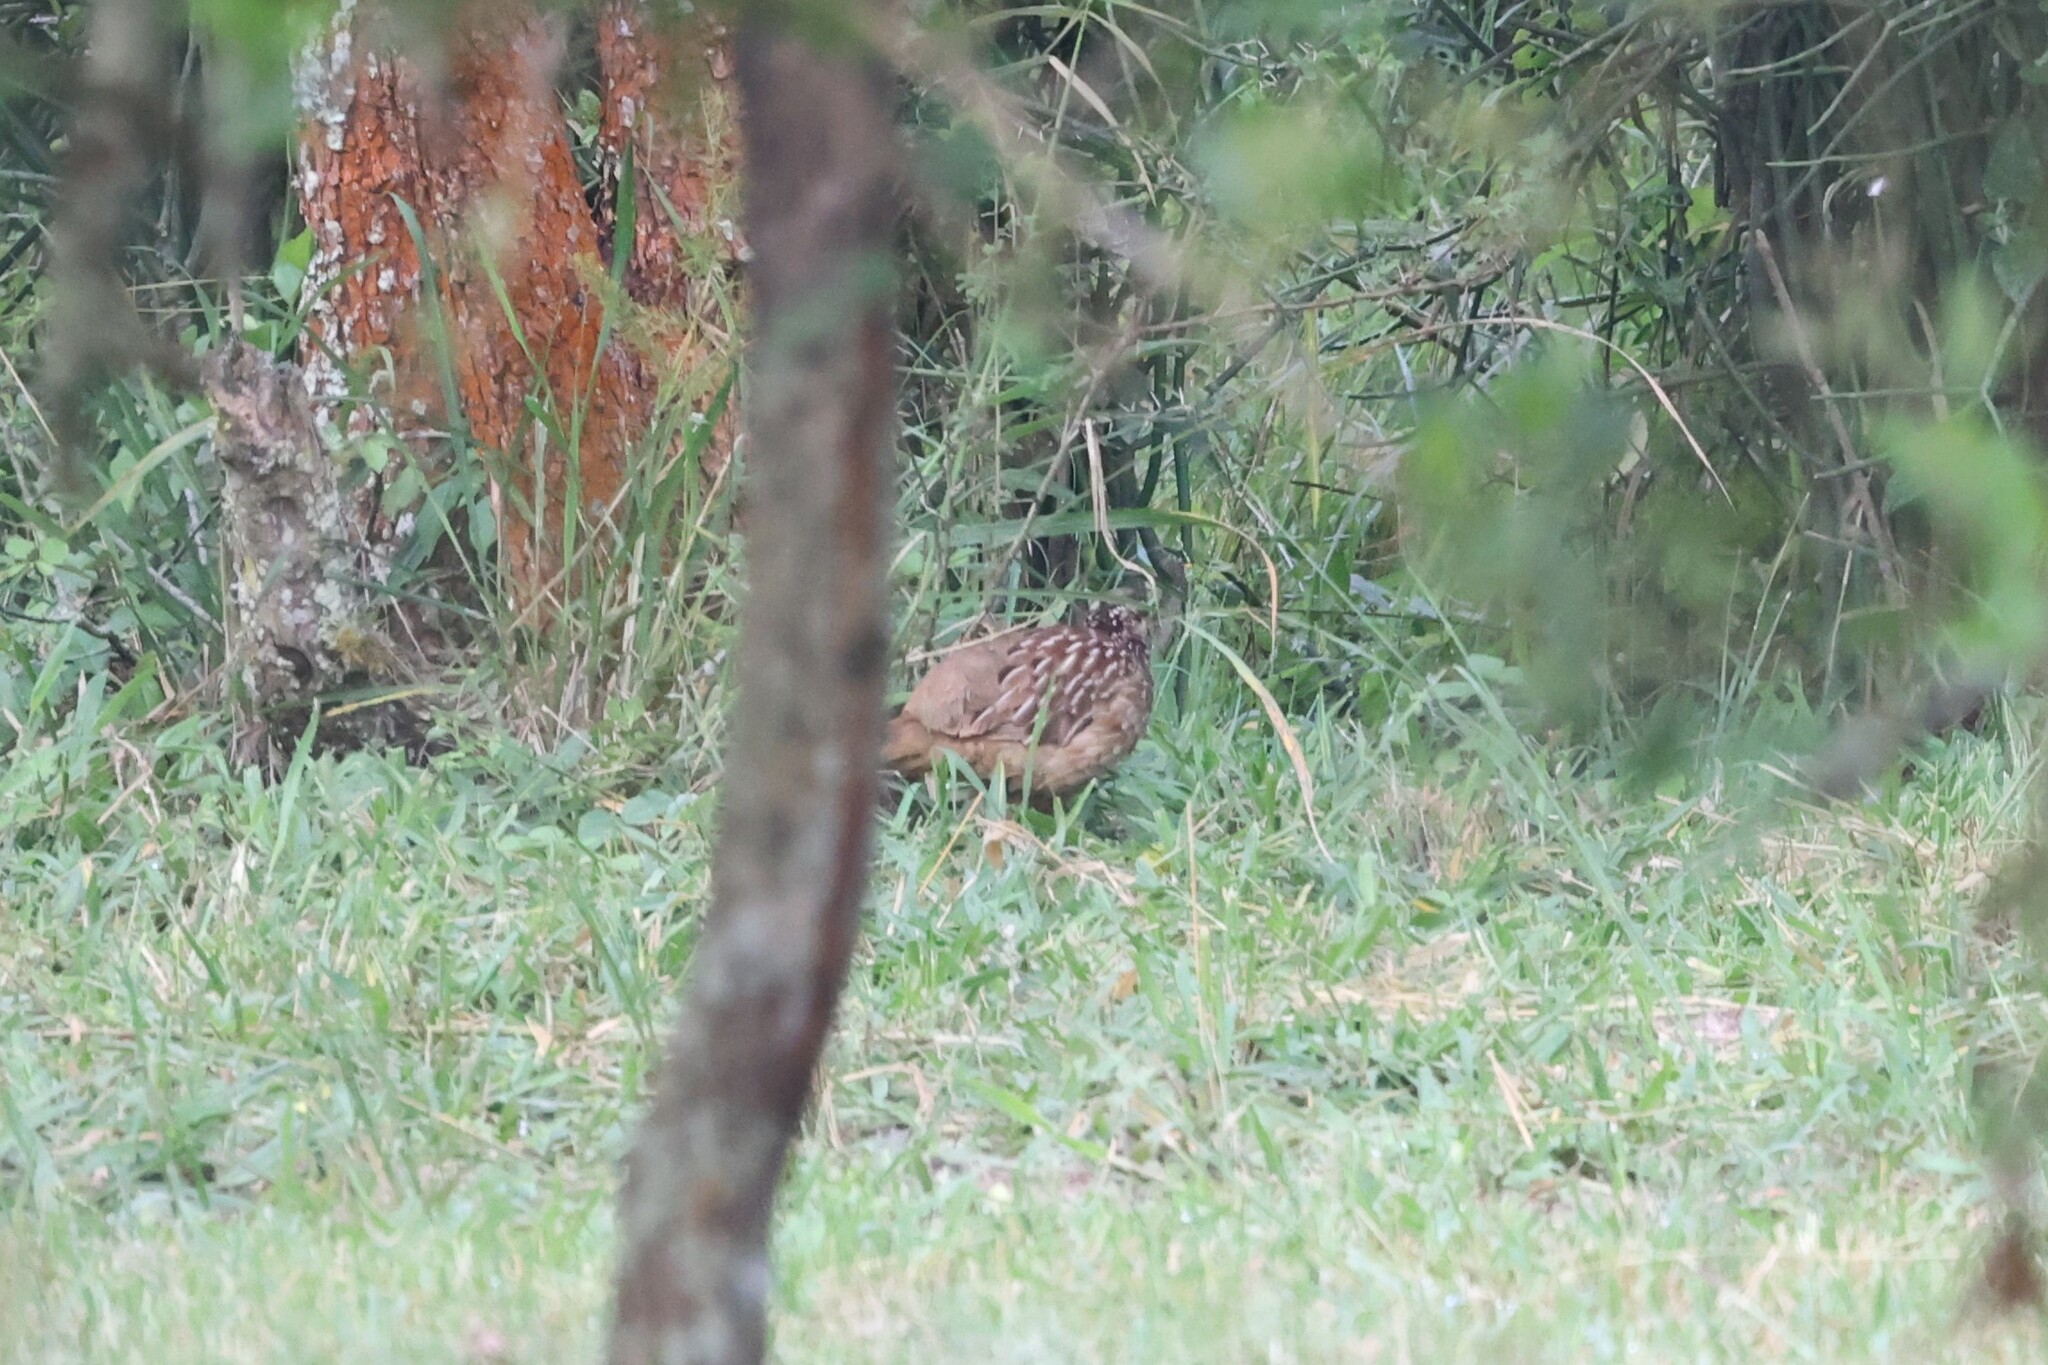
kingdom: Animalia
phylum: Chordata
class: Aves
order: Galliformes
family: Phasianidae
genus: Ortygornis
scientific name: Ortygornis sephaena
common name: Crested francolin
